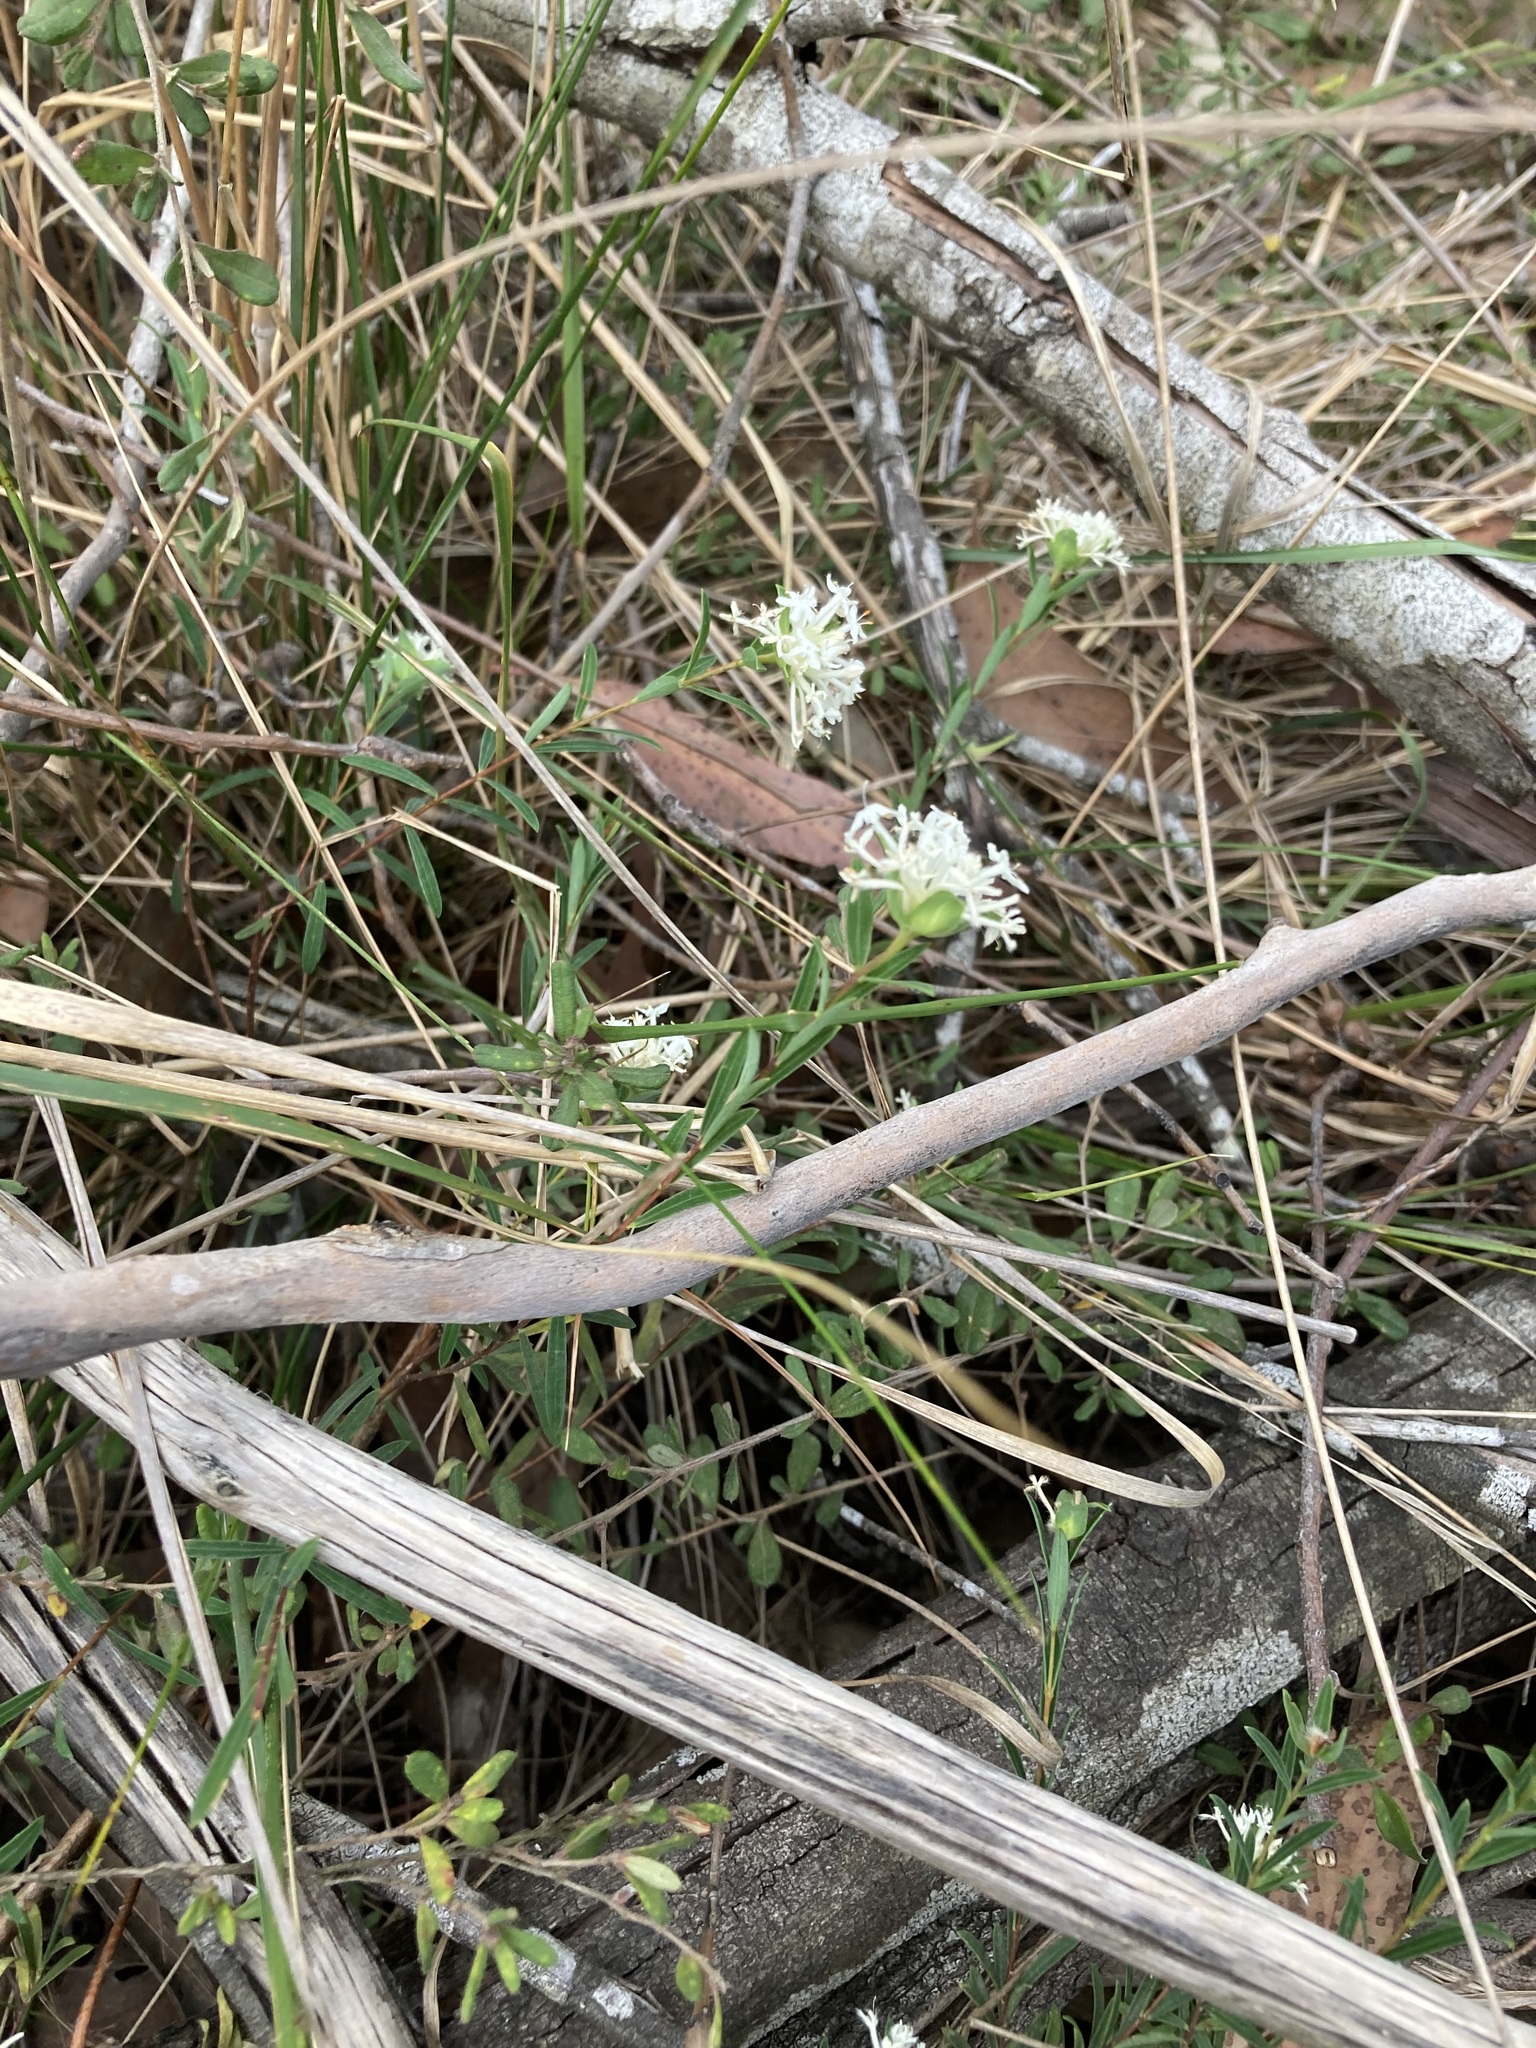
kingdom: Plantae
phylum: Tracheophyta
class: Magnoliopsida
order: Malvales
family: Thymelaeaceae
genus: Pimelea
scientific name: Pimelea linifolia
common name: Queen-of-the-bush
